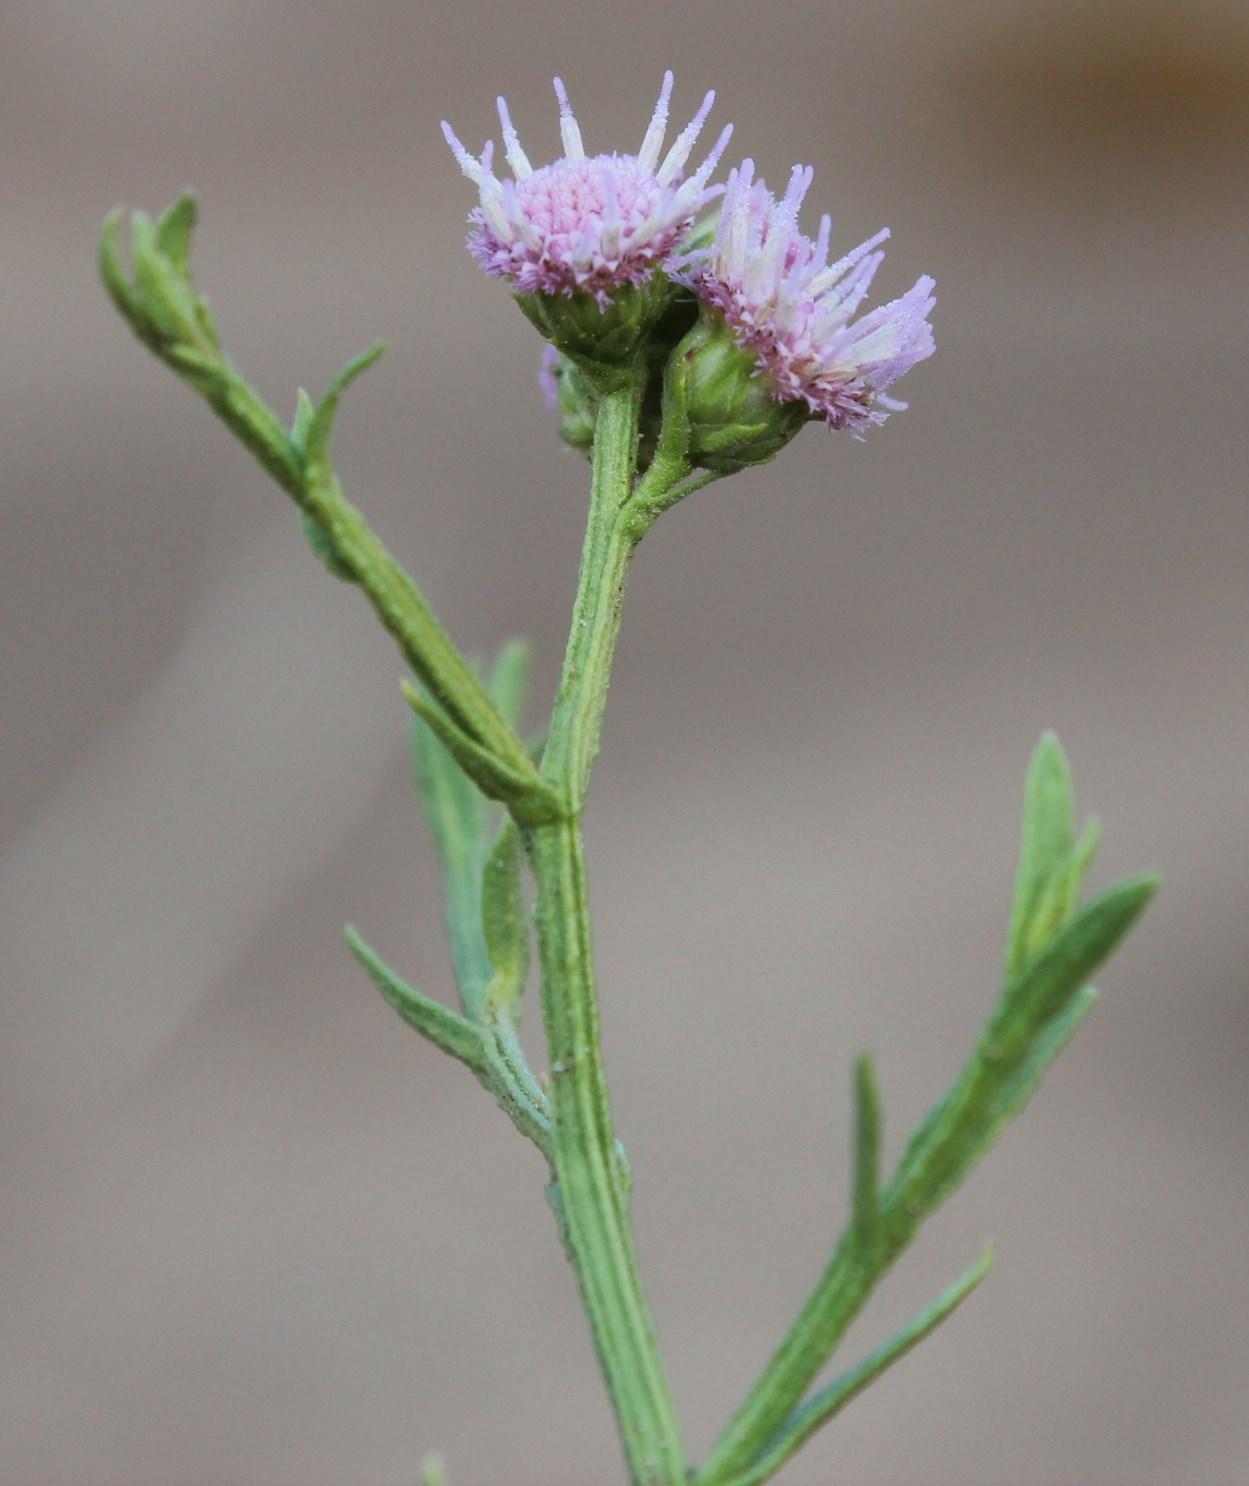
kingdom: Plantae
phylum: Tracheophyta
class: Magnoliopsida
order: Asterales
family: Asteraceae
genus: Litogyne
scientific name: Litogyne gariepina
